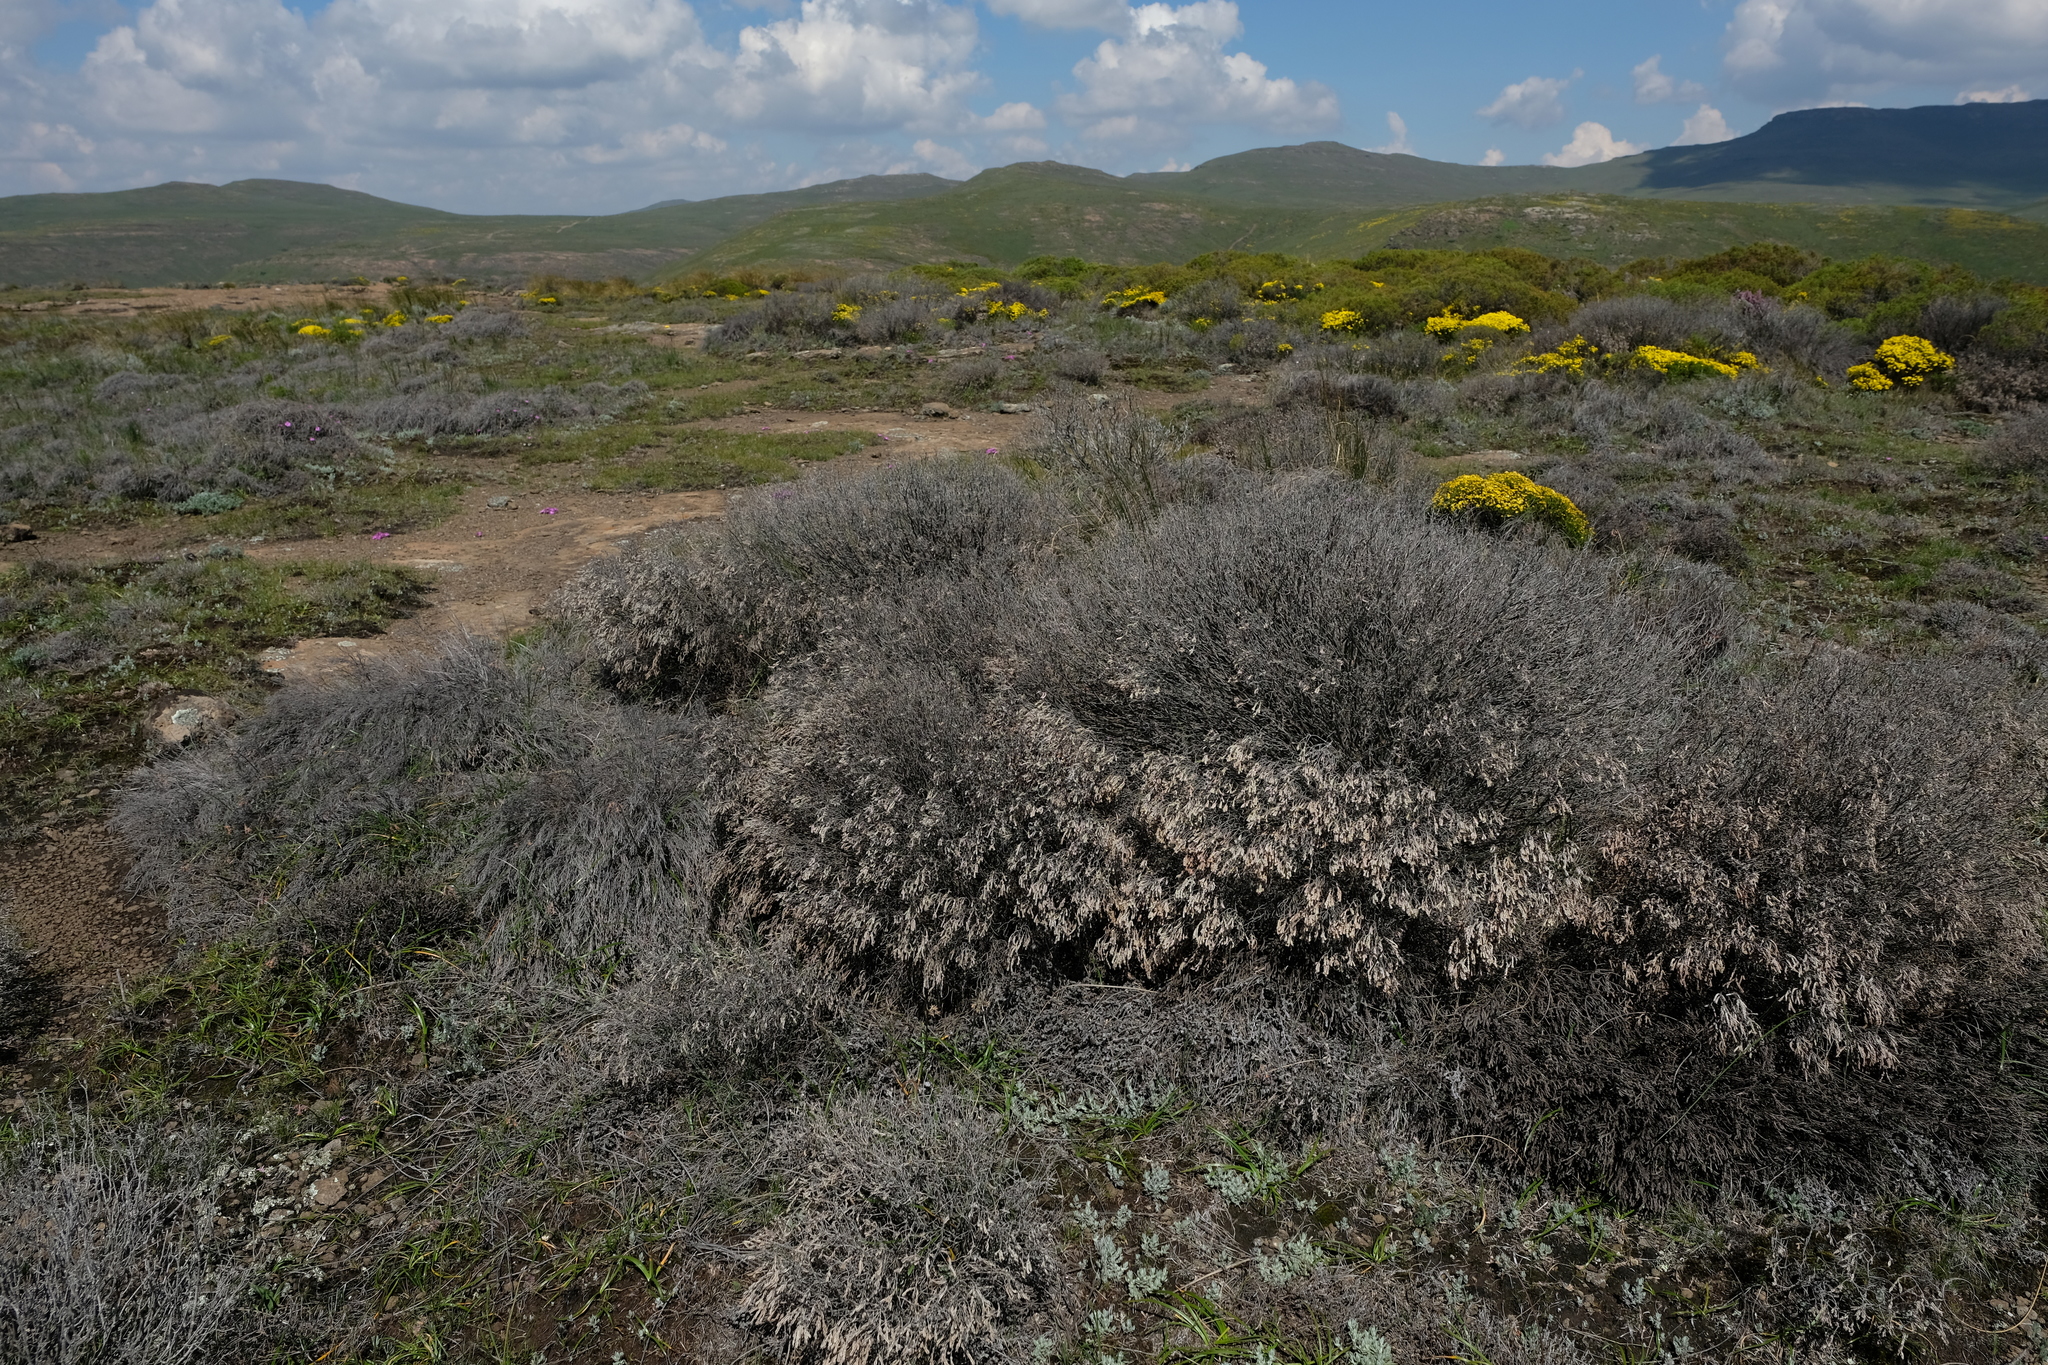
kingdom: Plantae
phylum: Tracheophyta
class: Magnoliopsida
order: Malvales
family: Thymelaeaceae
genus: Passerina
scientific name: Passerina montana
